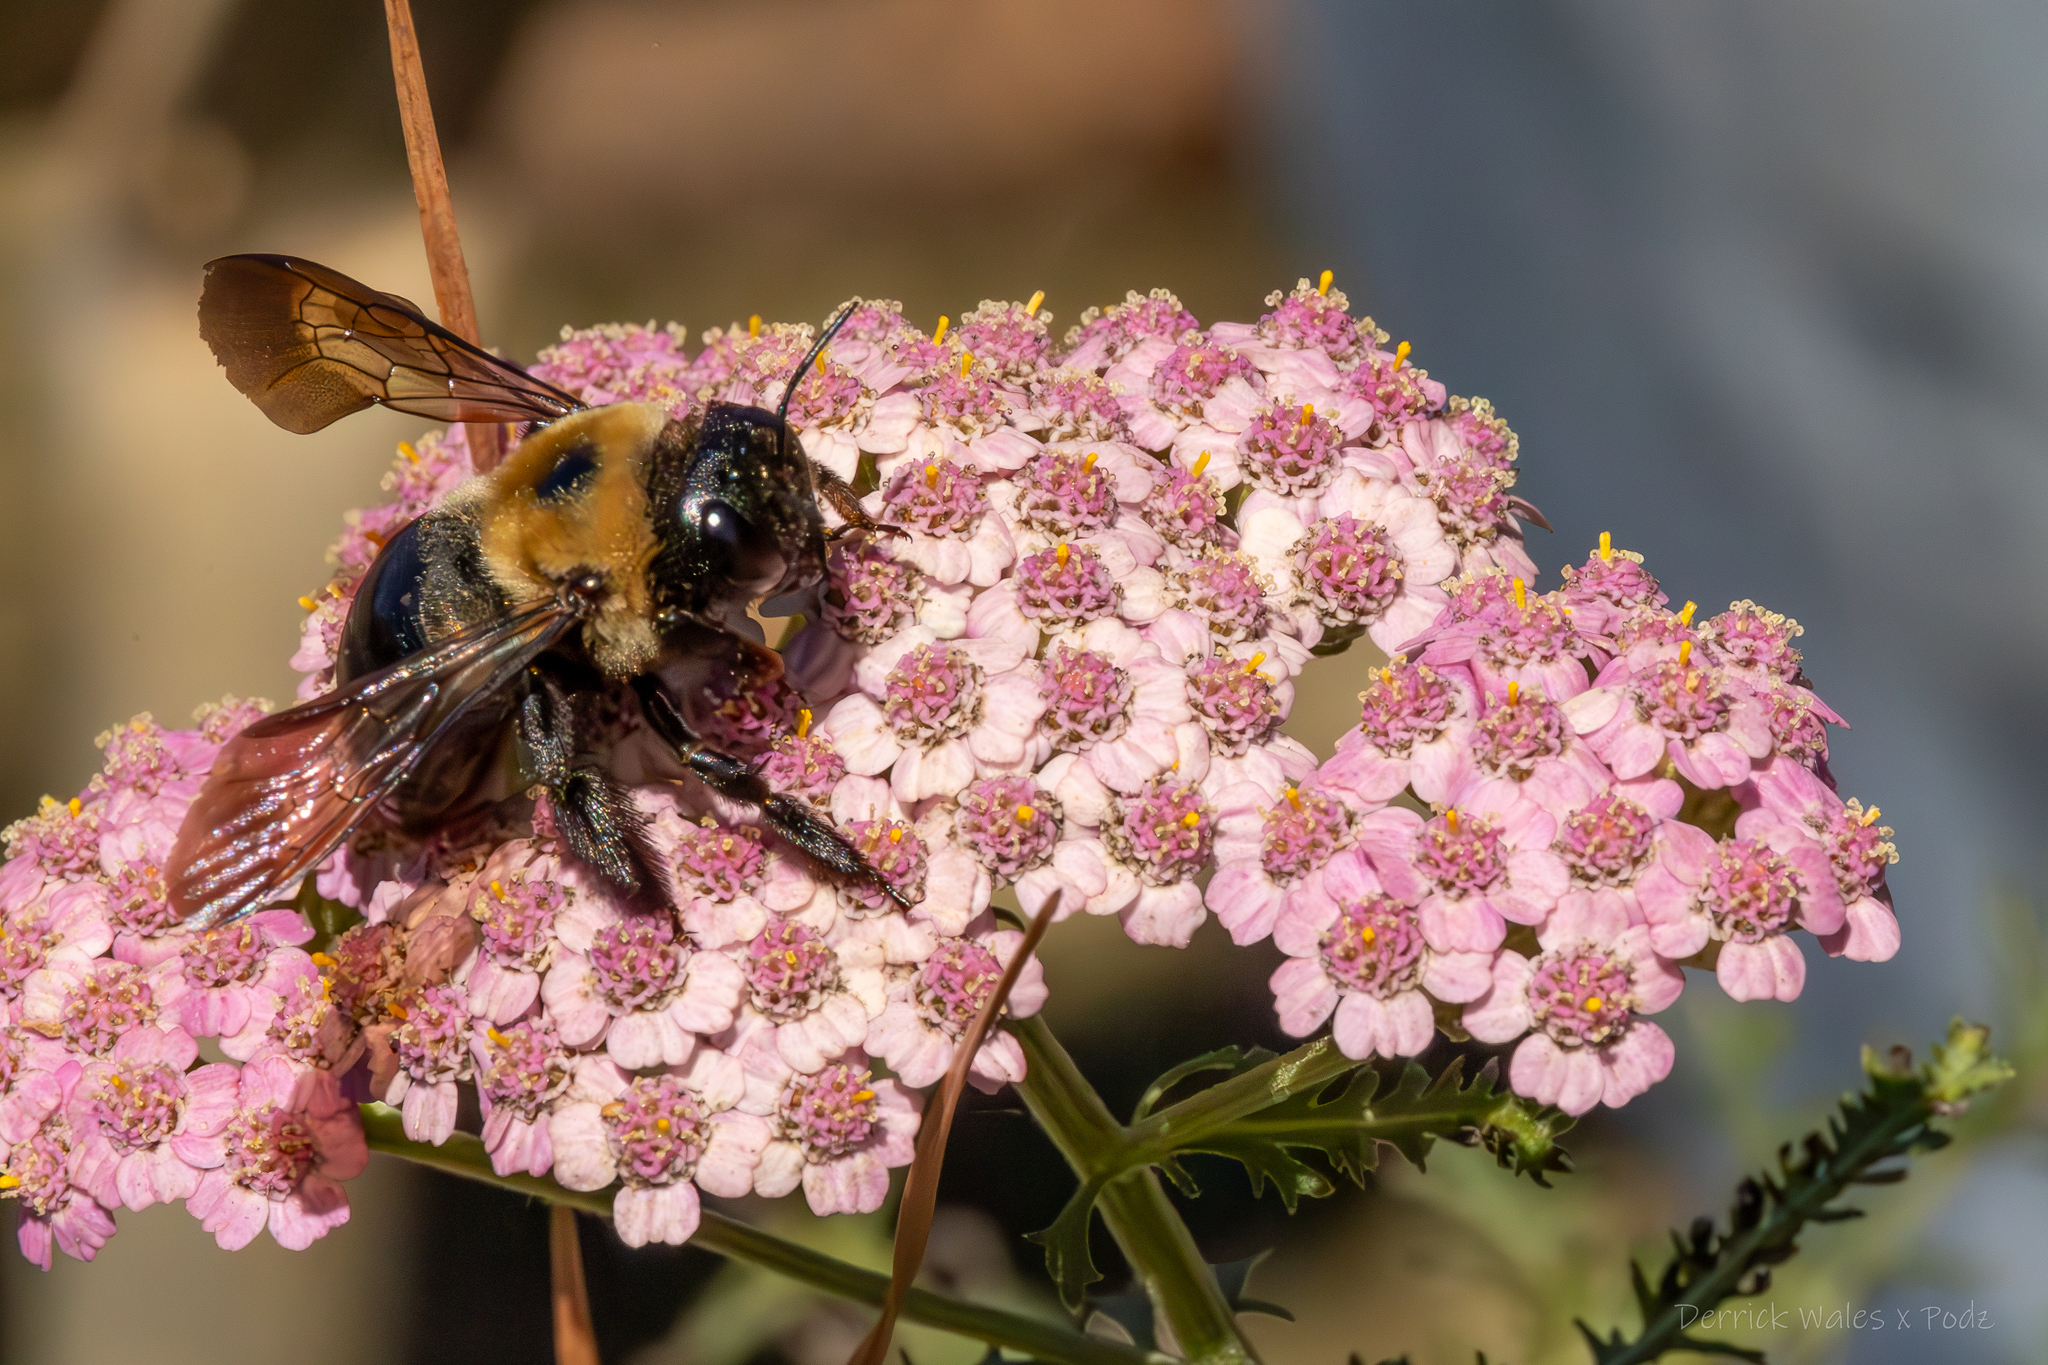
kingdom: Animalia
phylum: Arthropoda
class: Insecta
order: Hymenoptera
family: Apidae
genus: Xylocopa
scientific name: Xylocopa virginica
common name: Carpenter bee
